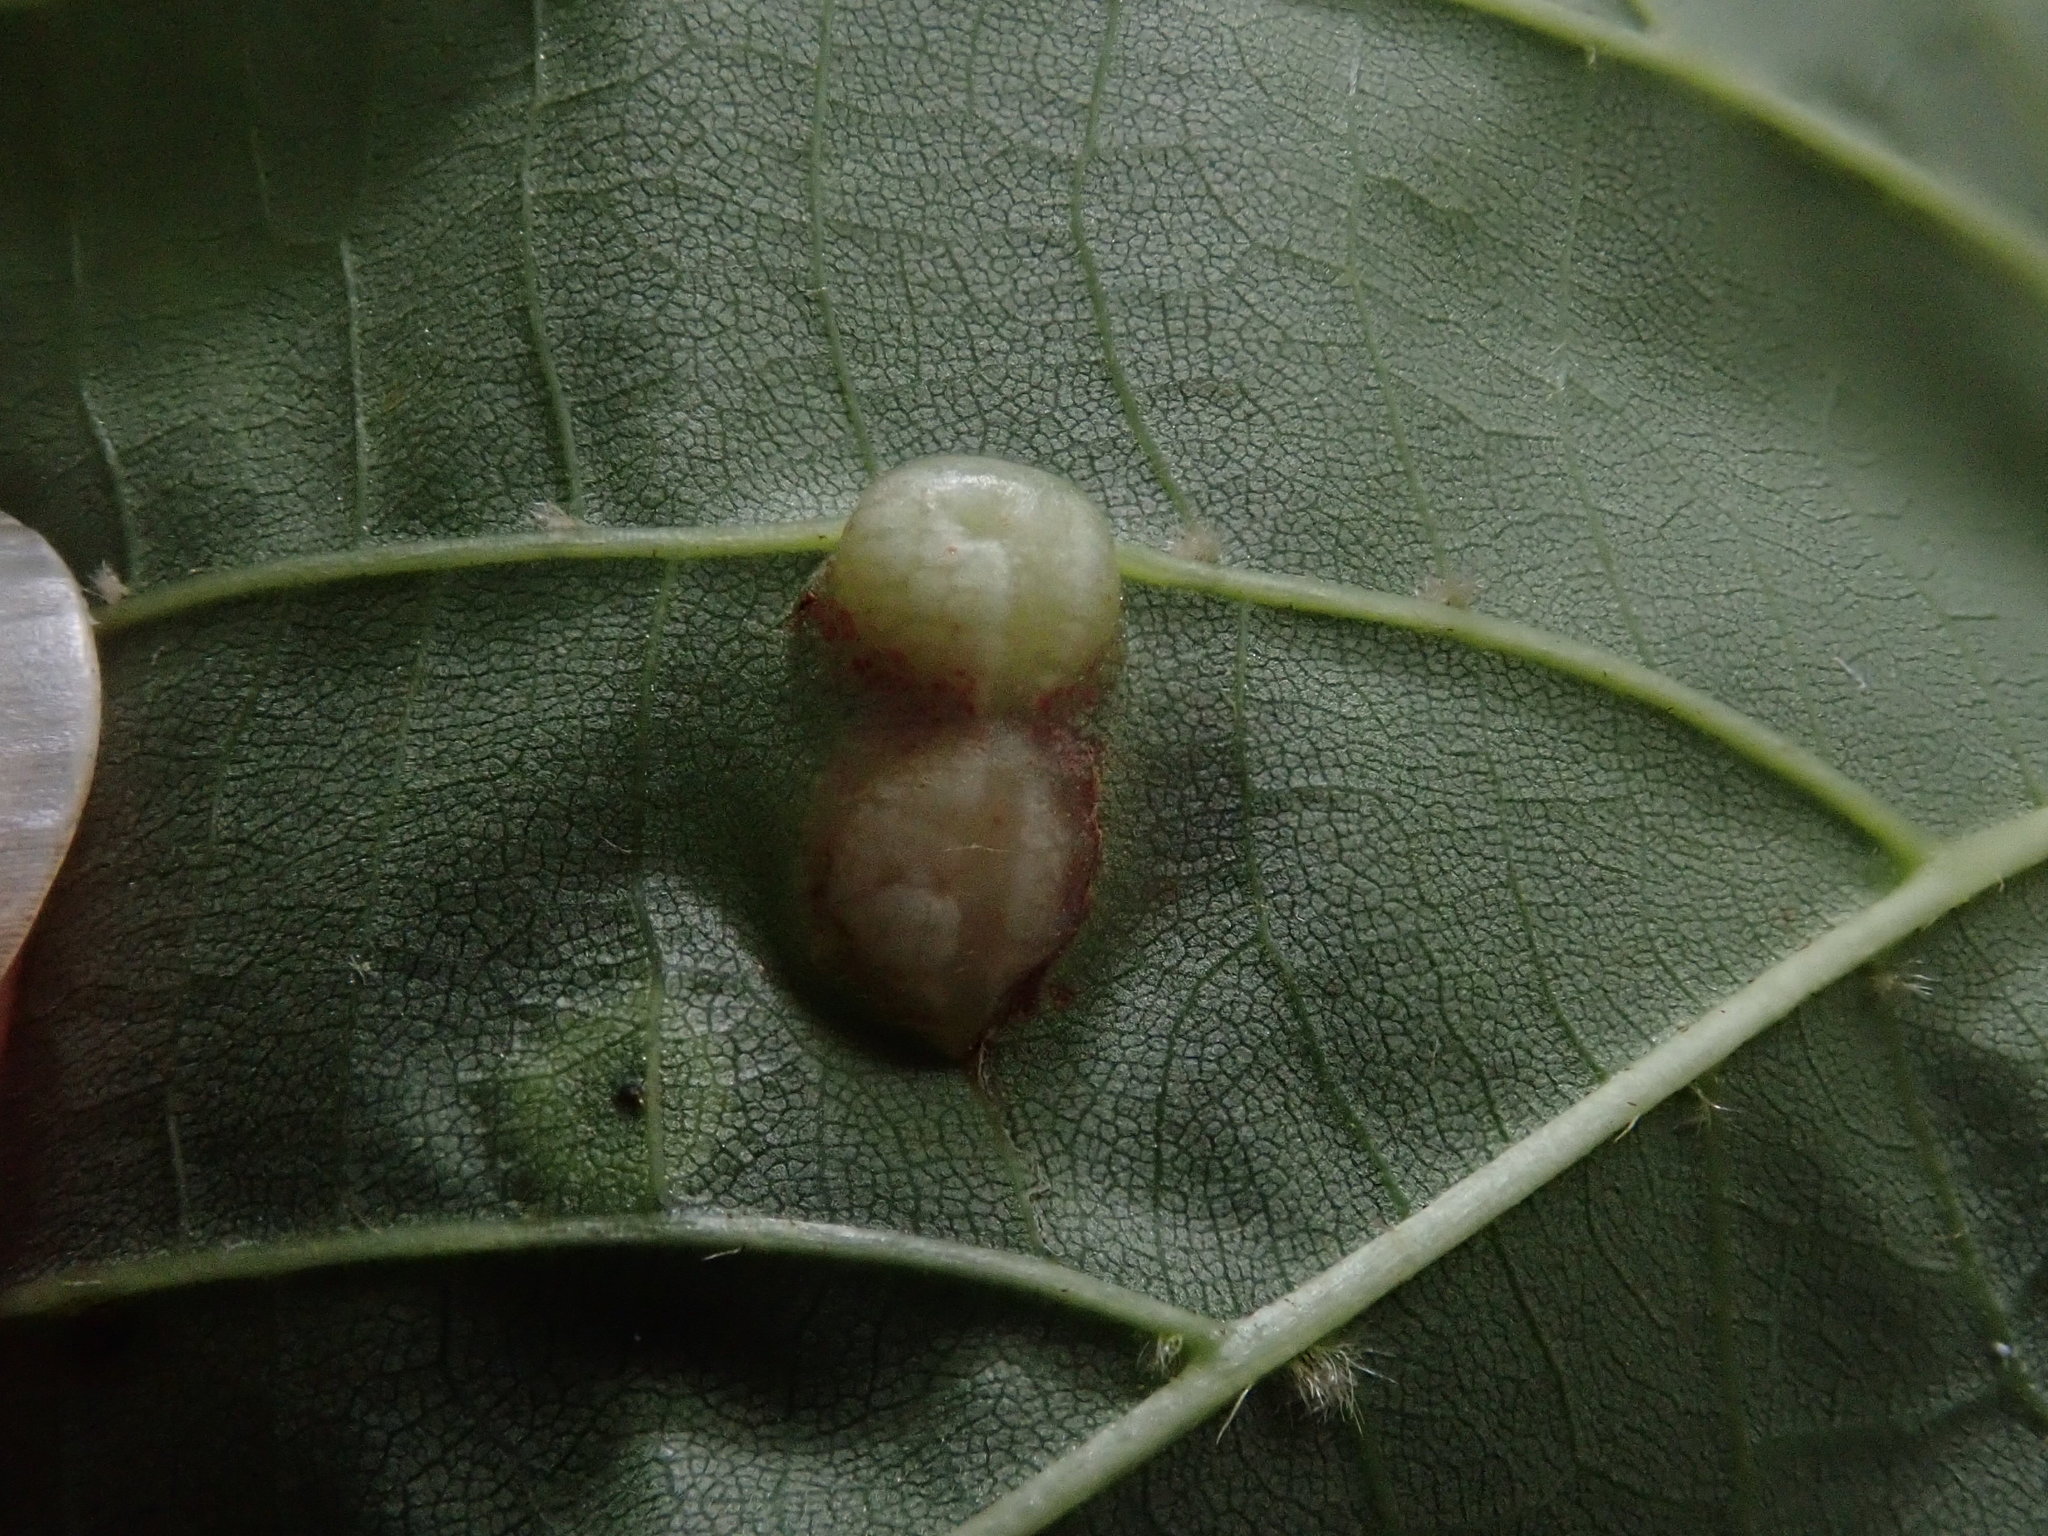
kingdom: Animalia
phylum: Arthropoda
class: Insecta
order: Diptera
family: Cecidomyiidae
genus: Contarinia
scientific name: Contarinia verrucicola
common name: Linden wart gall midge
